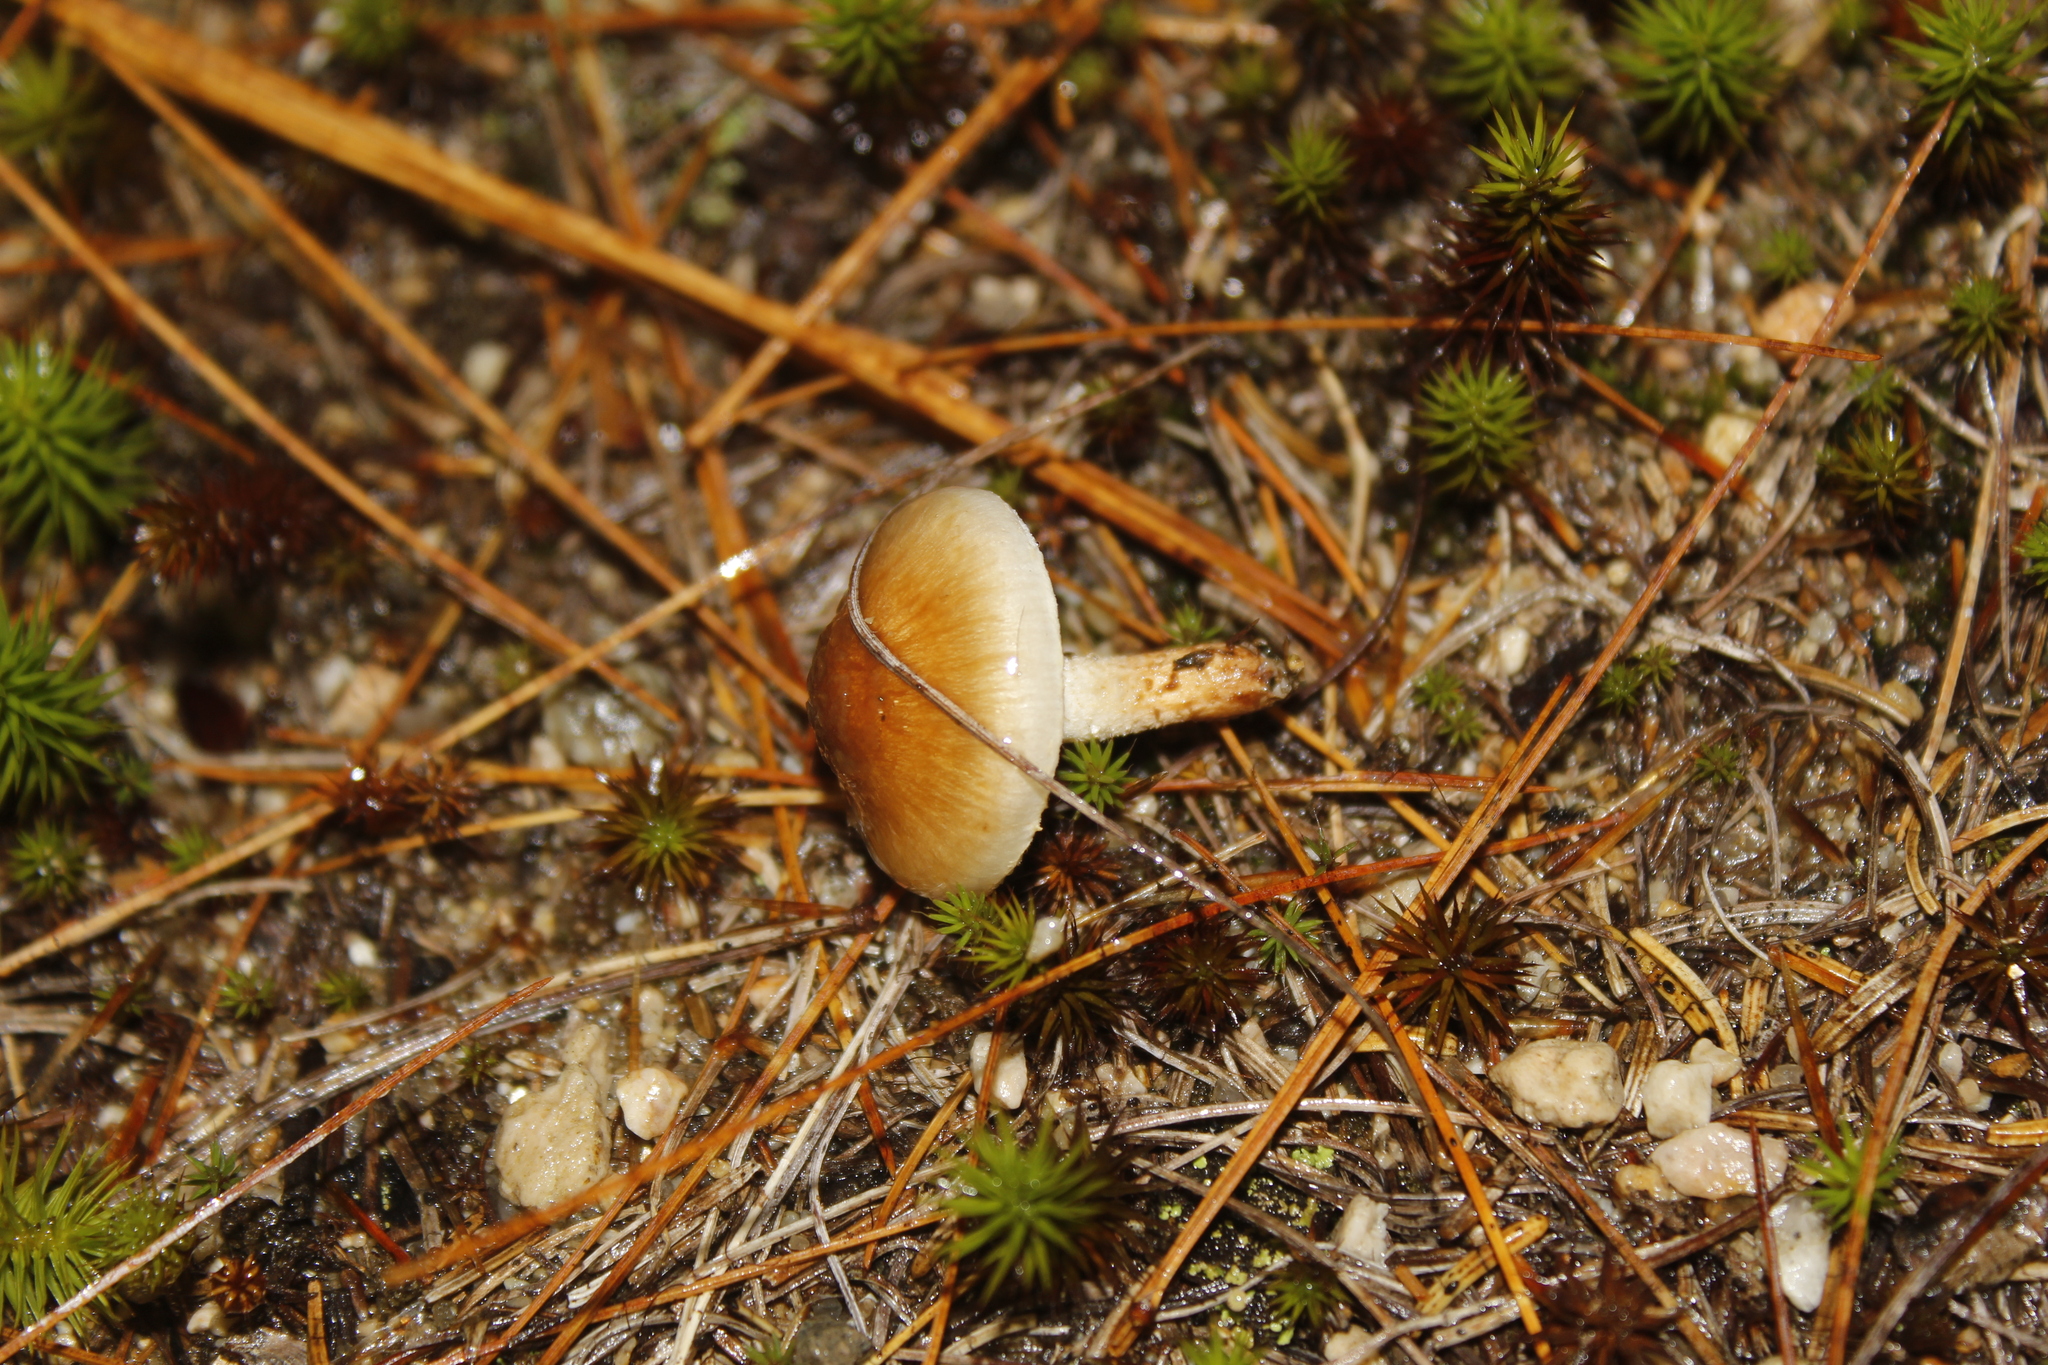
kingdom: Fungi
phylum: Basidiomycota
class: Agaricomycetes
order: Agaricales
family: Tricholomataceae
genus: Tricholoma
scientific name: Tricholoma vaccinum
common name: Scaly knight
